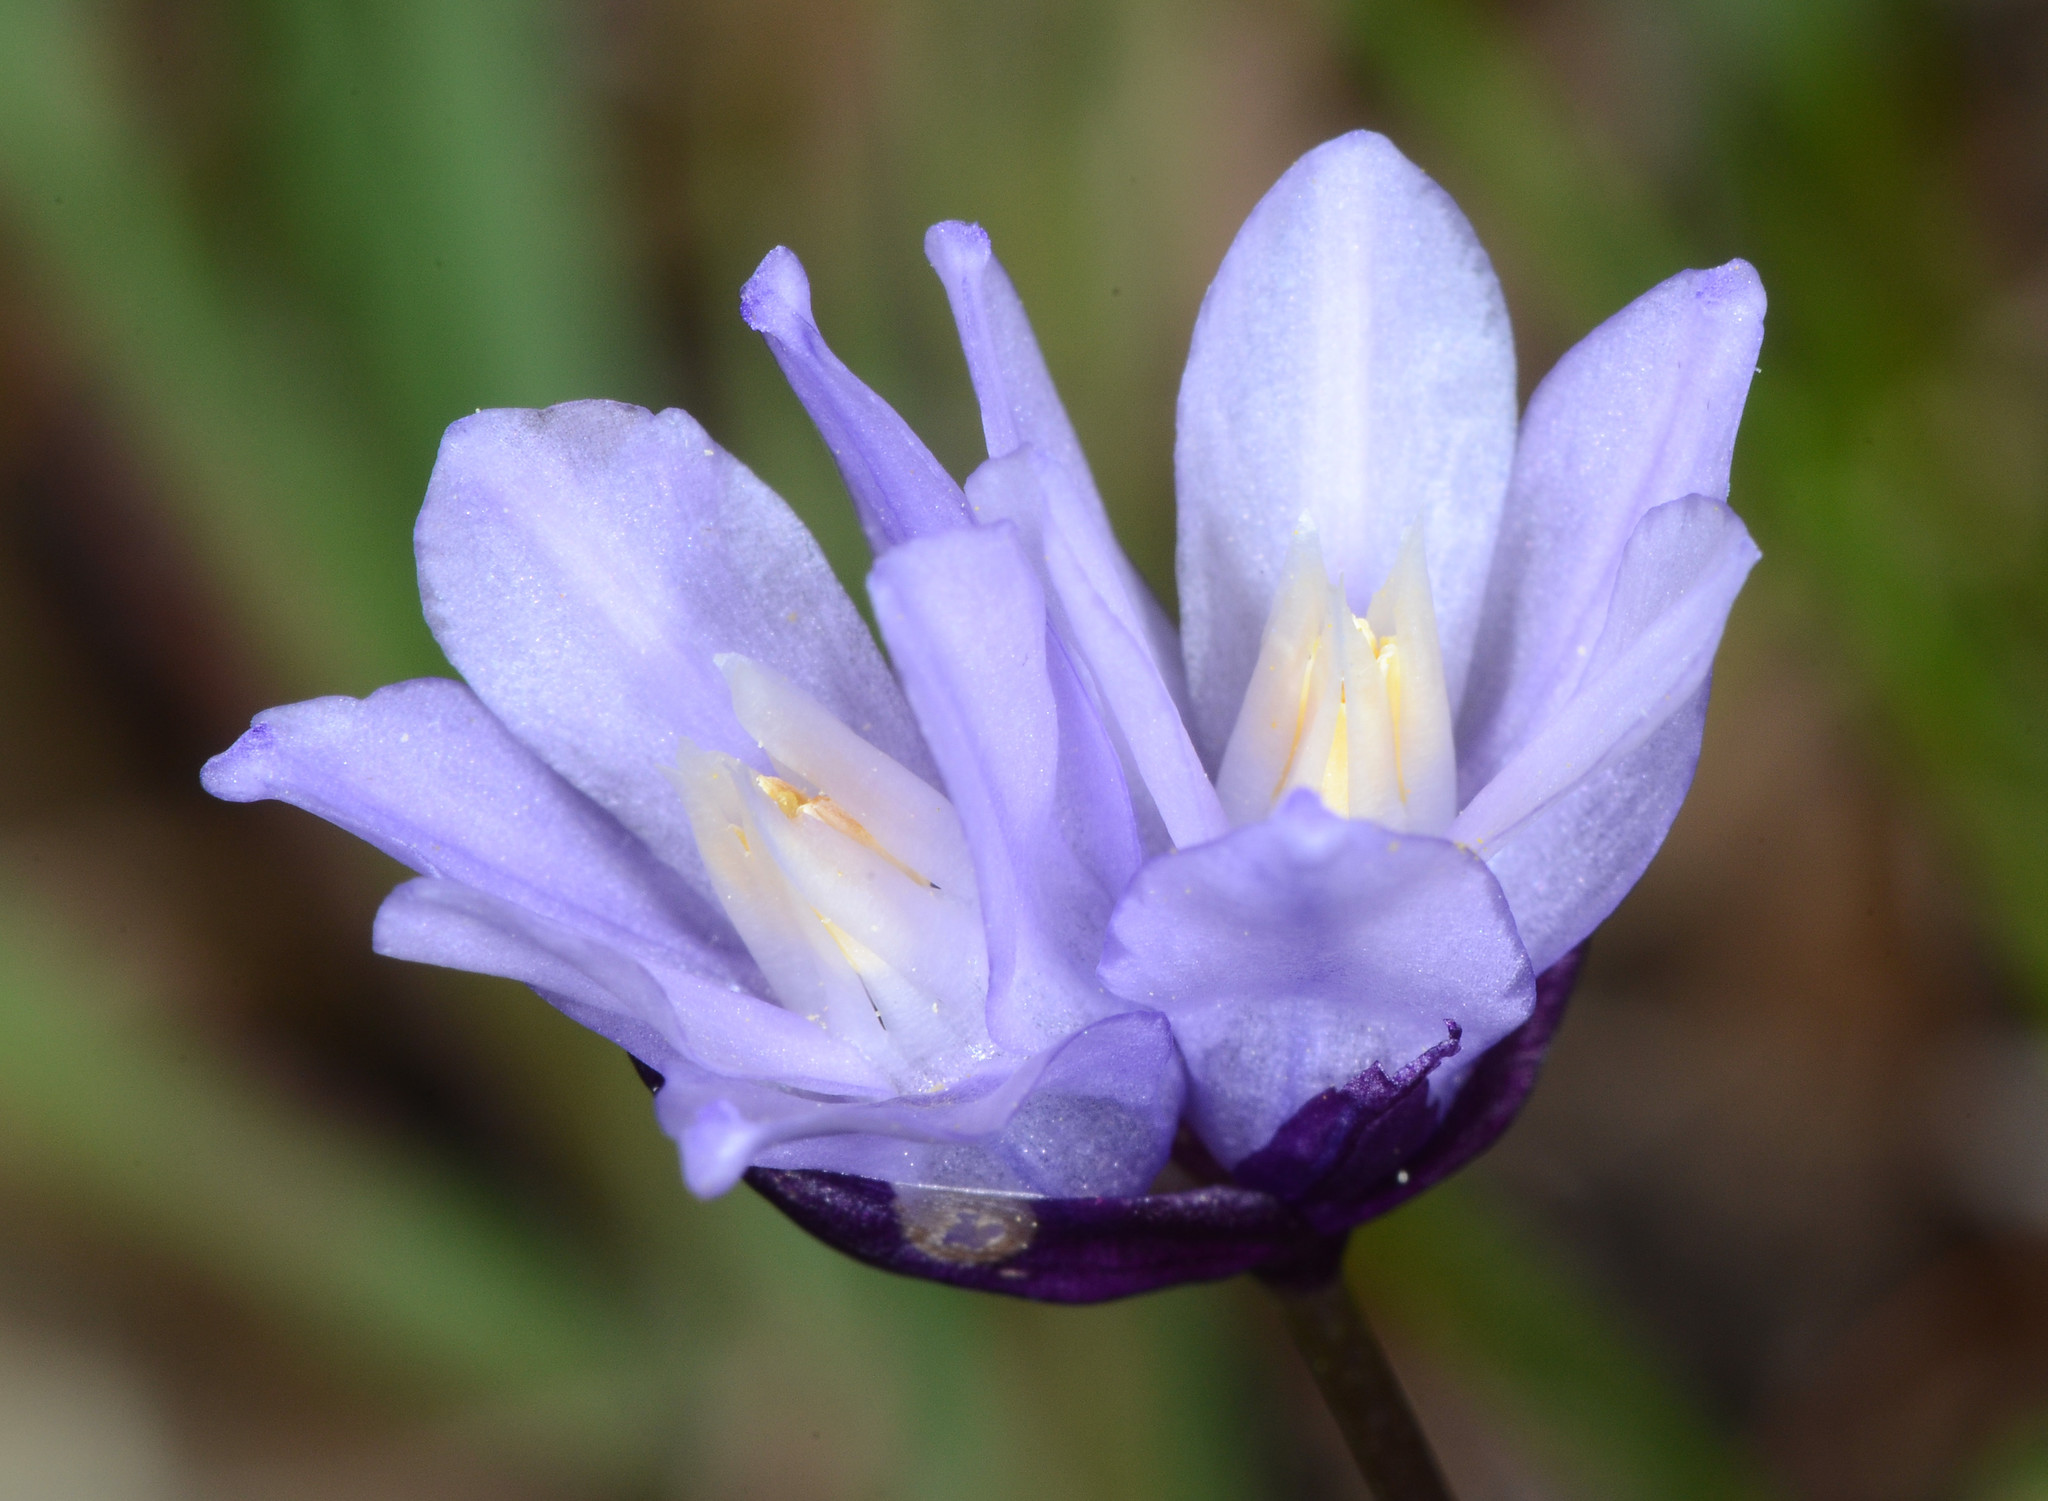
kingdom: Plantae
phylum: Tracheophyta
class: Liliopsida
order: Asparagales
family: Asparagaceae
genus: Dipterostemon
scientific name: Dipterostemon capitatus
